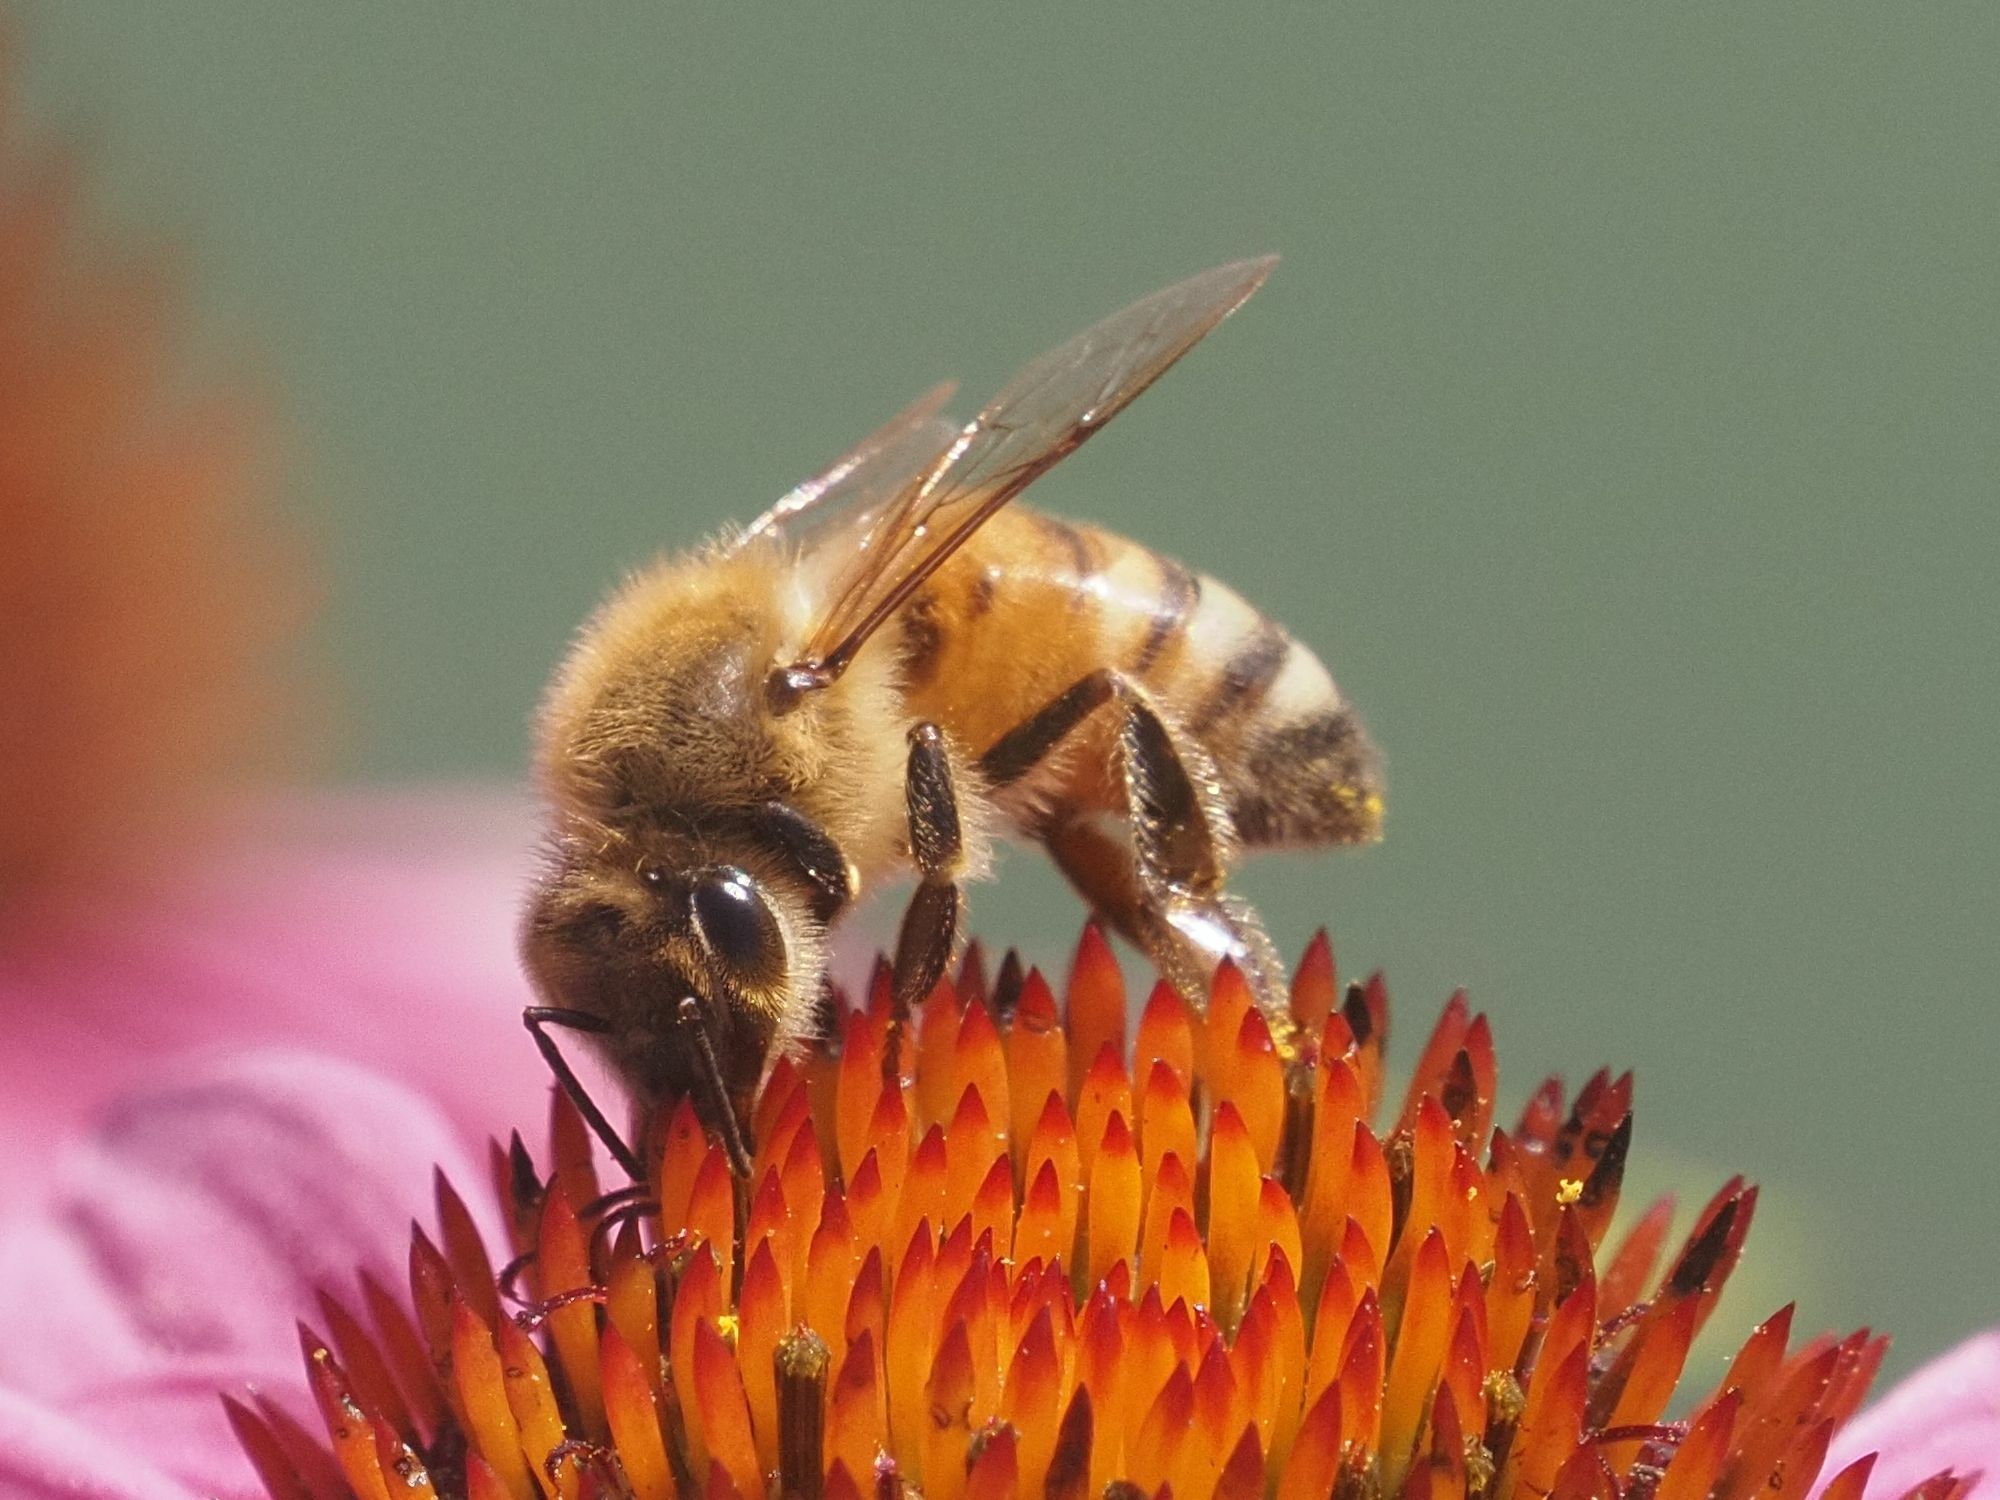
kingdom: Animalia
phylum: Arthropoda
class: Insecta
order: Hymenoptera
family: Apidae
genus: Apis
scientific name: Apis mellifera
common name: Honey bee
